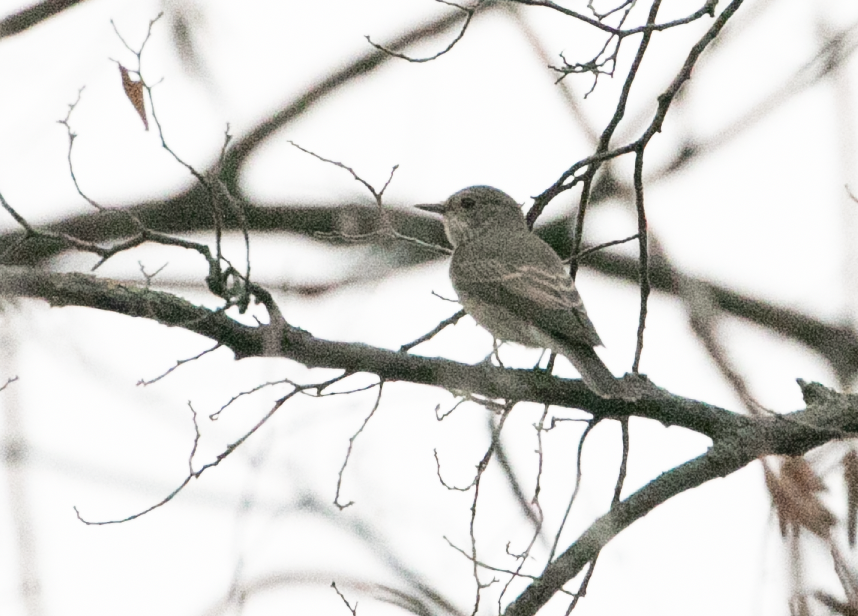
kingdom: Animalia
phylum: Chordata
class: Aves
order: Passeriformes
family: Muscicapidae
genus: Muscicapa
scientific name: Muscicapa striata
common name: Spotted flycatcher
